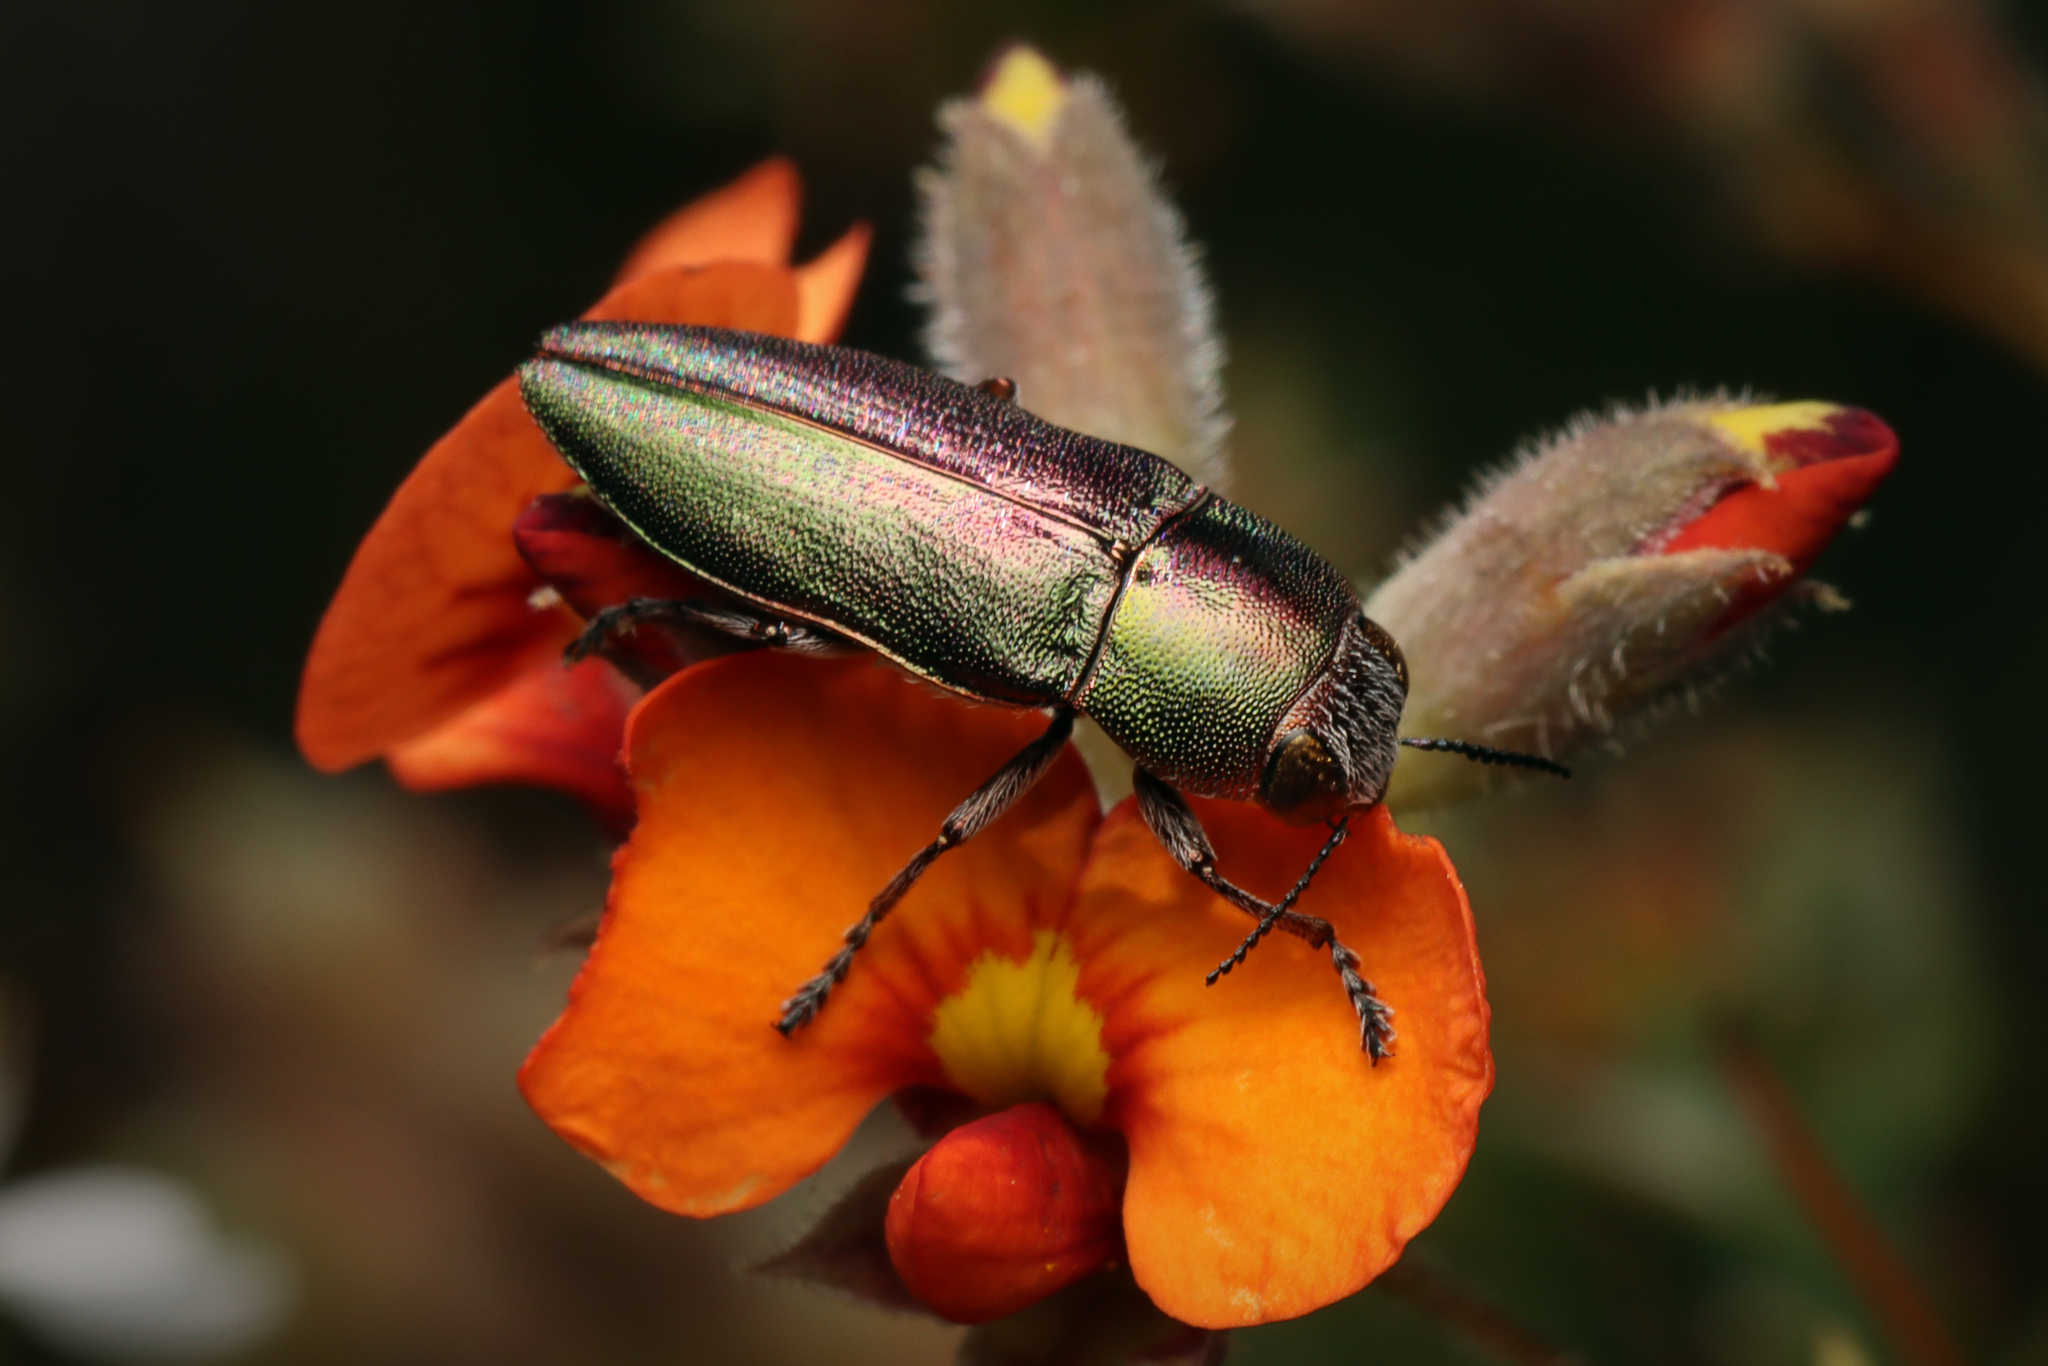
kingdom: Animalia
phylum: Arthropoda
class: Insecta
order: Coleoptera
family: Buprestidae
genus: Melobasis
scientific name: Melobasis propinqua
